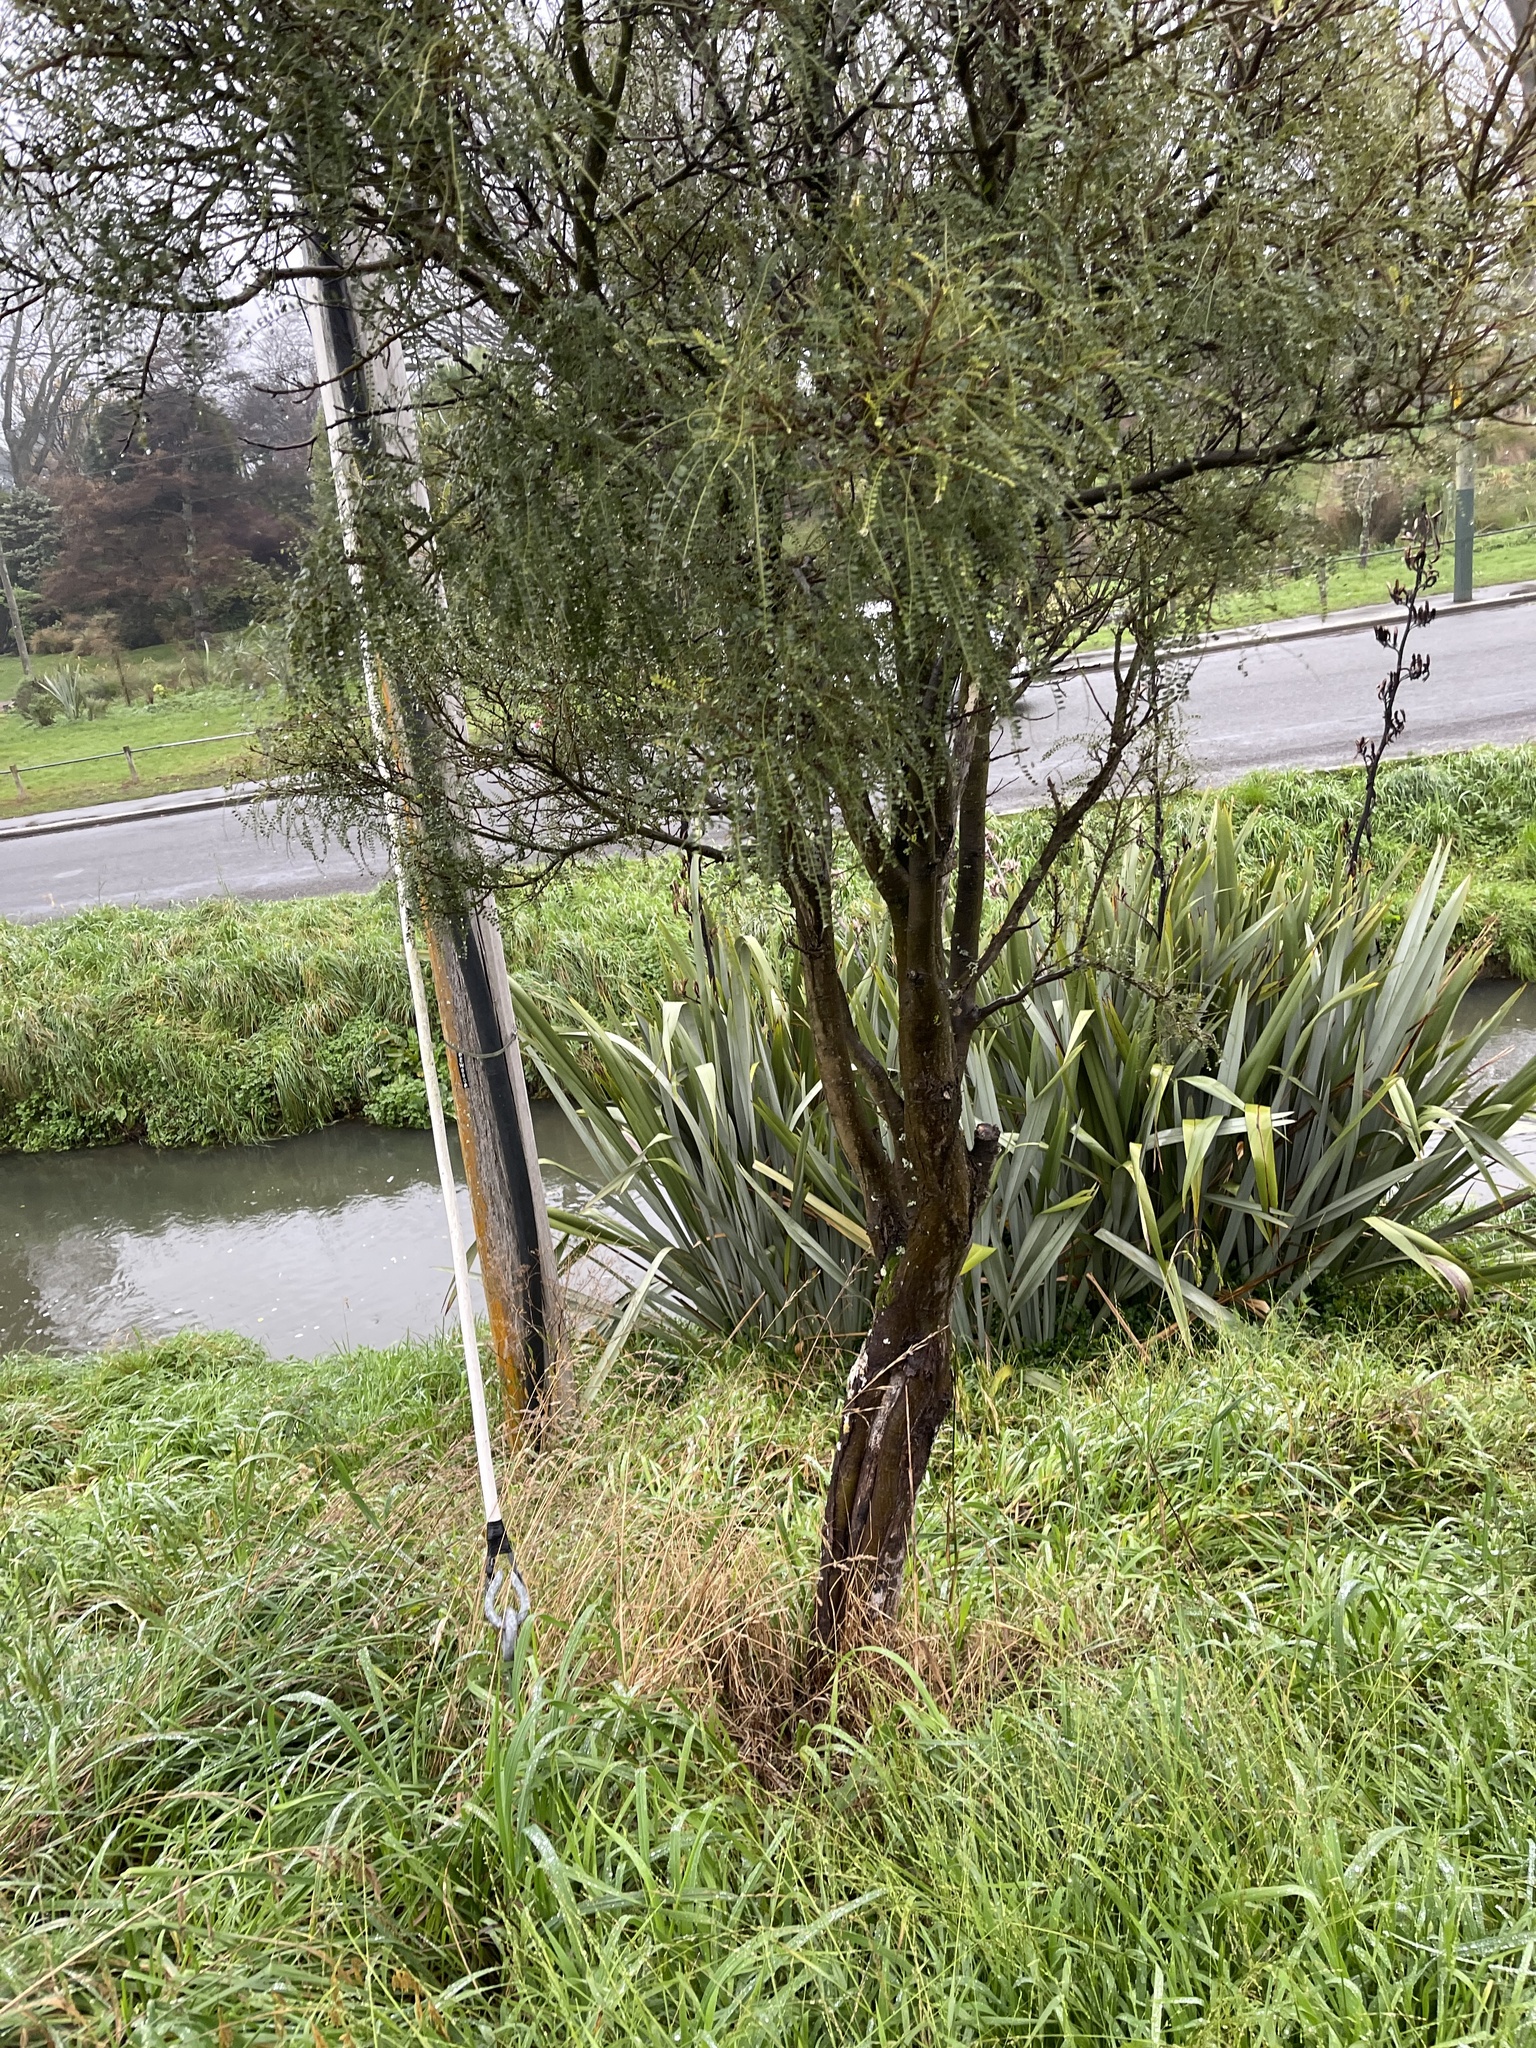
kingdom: Plantae
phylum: Tracheophyta
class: Magnoliopsida
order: Fabales
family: Fabaceae
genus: Sophora
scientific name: Sophora microphylla
